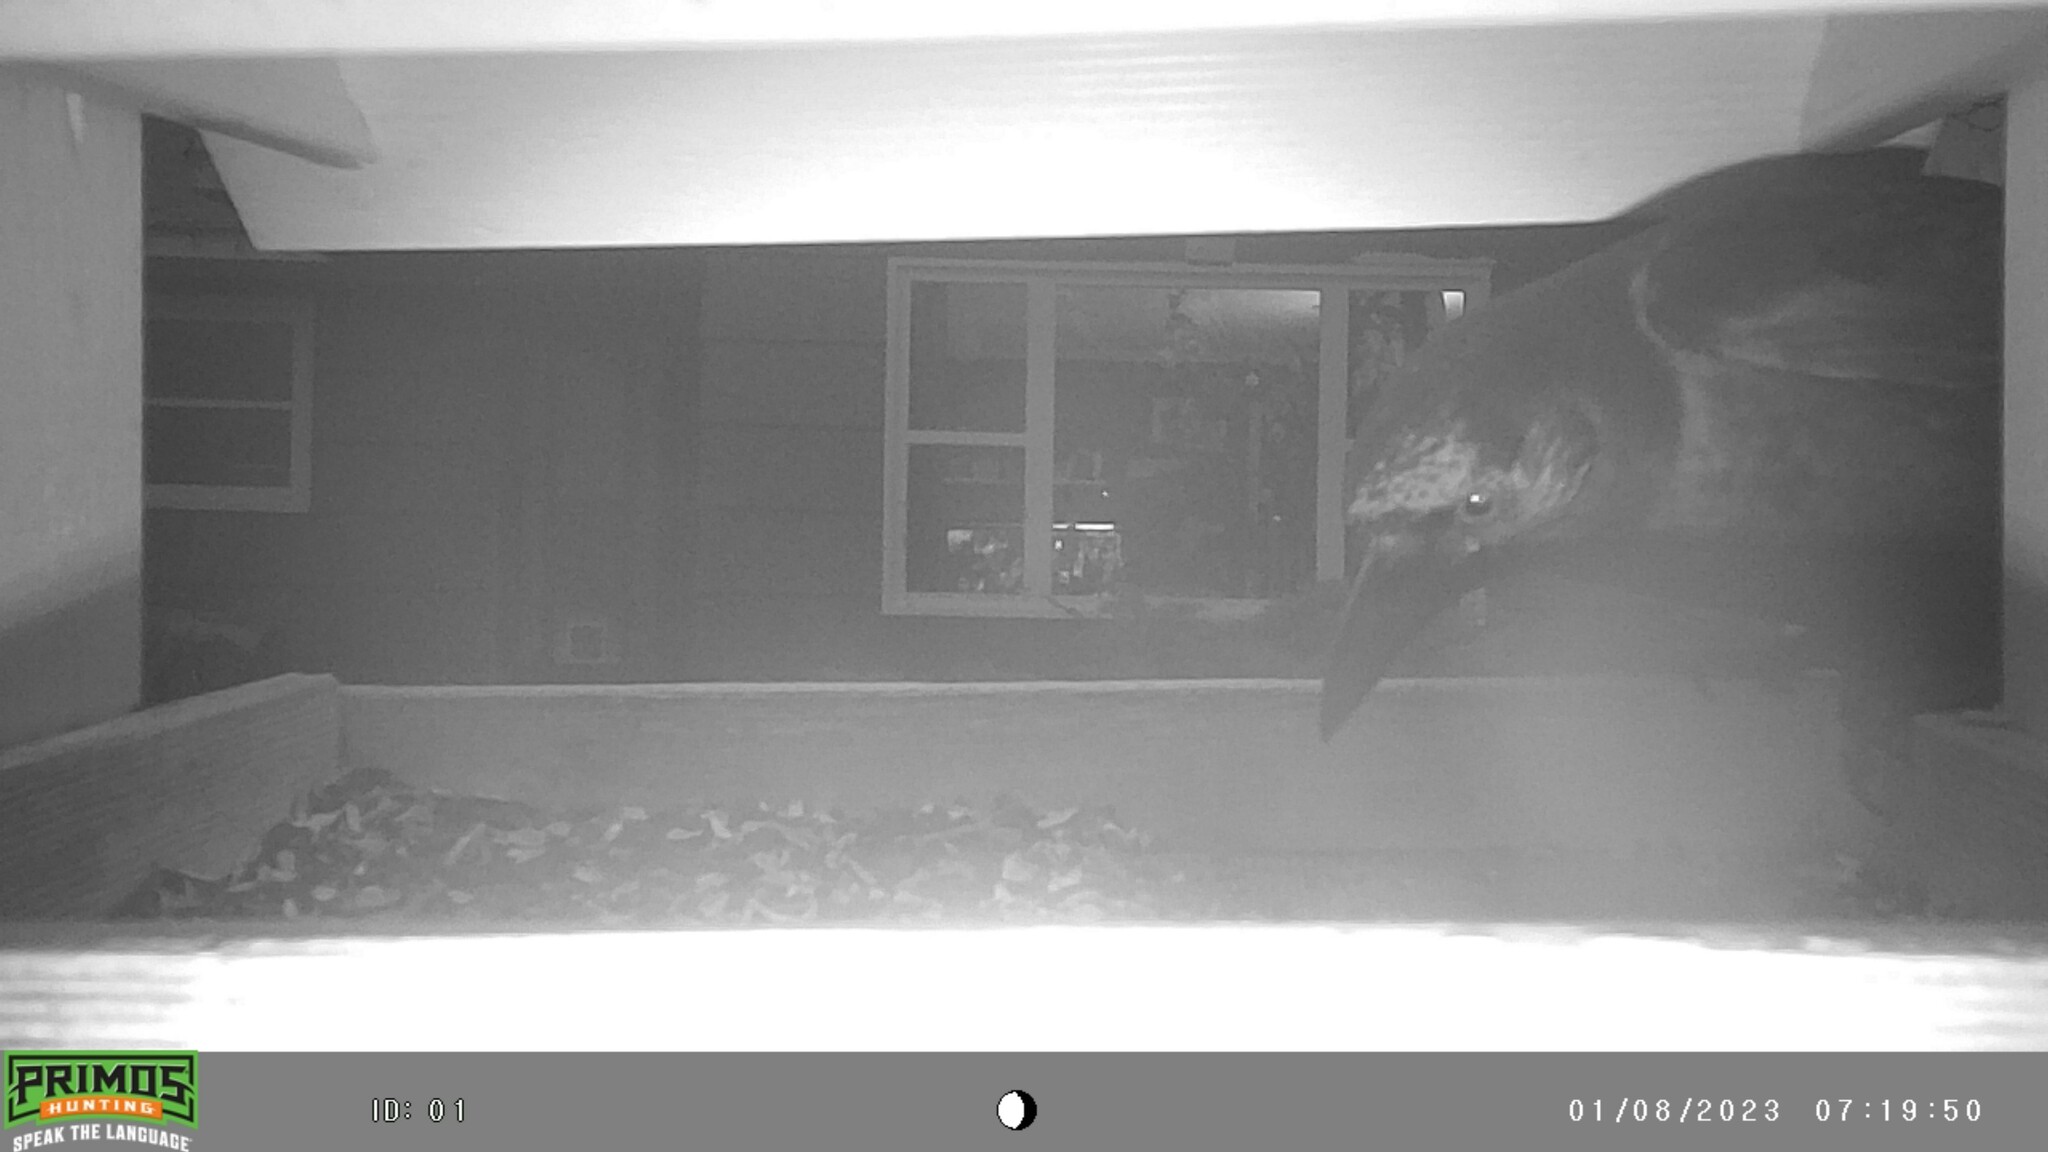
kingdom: Animalia
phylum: Chordata
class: Aves
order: Passeriformes
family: Corvidae
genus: Corvus
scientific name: Corvus brachyrhynchos
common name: American crow
